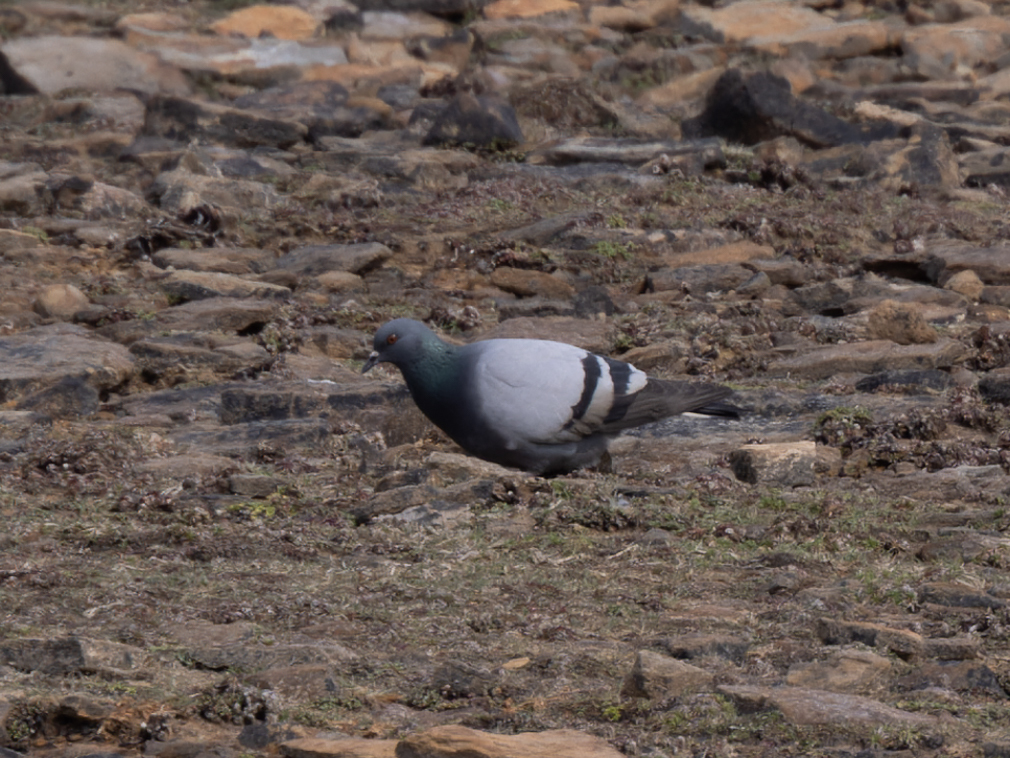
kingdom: Animalia
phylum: Chordata
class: Aves
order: Columbiformes
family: Columbidae
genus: Columba
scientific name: Columba livia
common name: Rock pigeon
